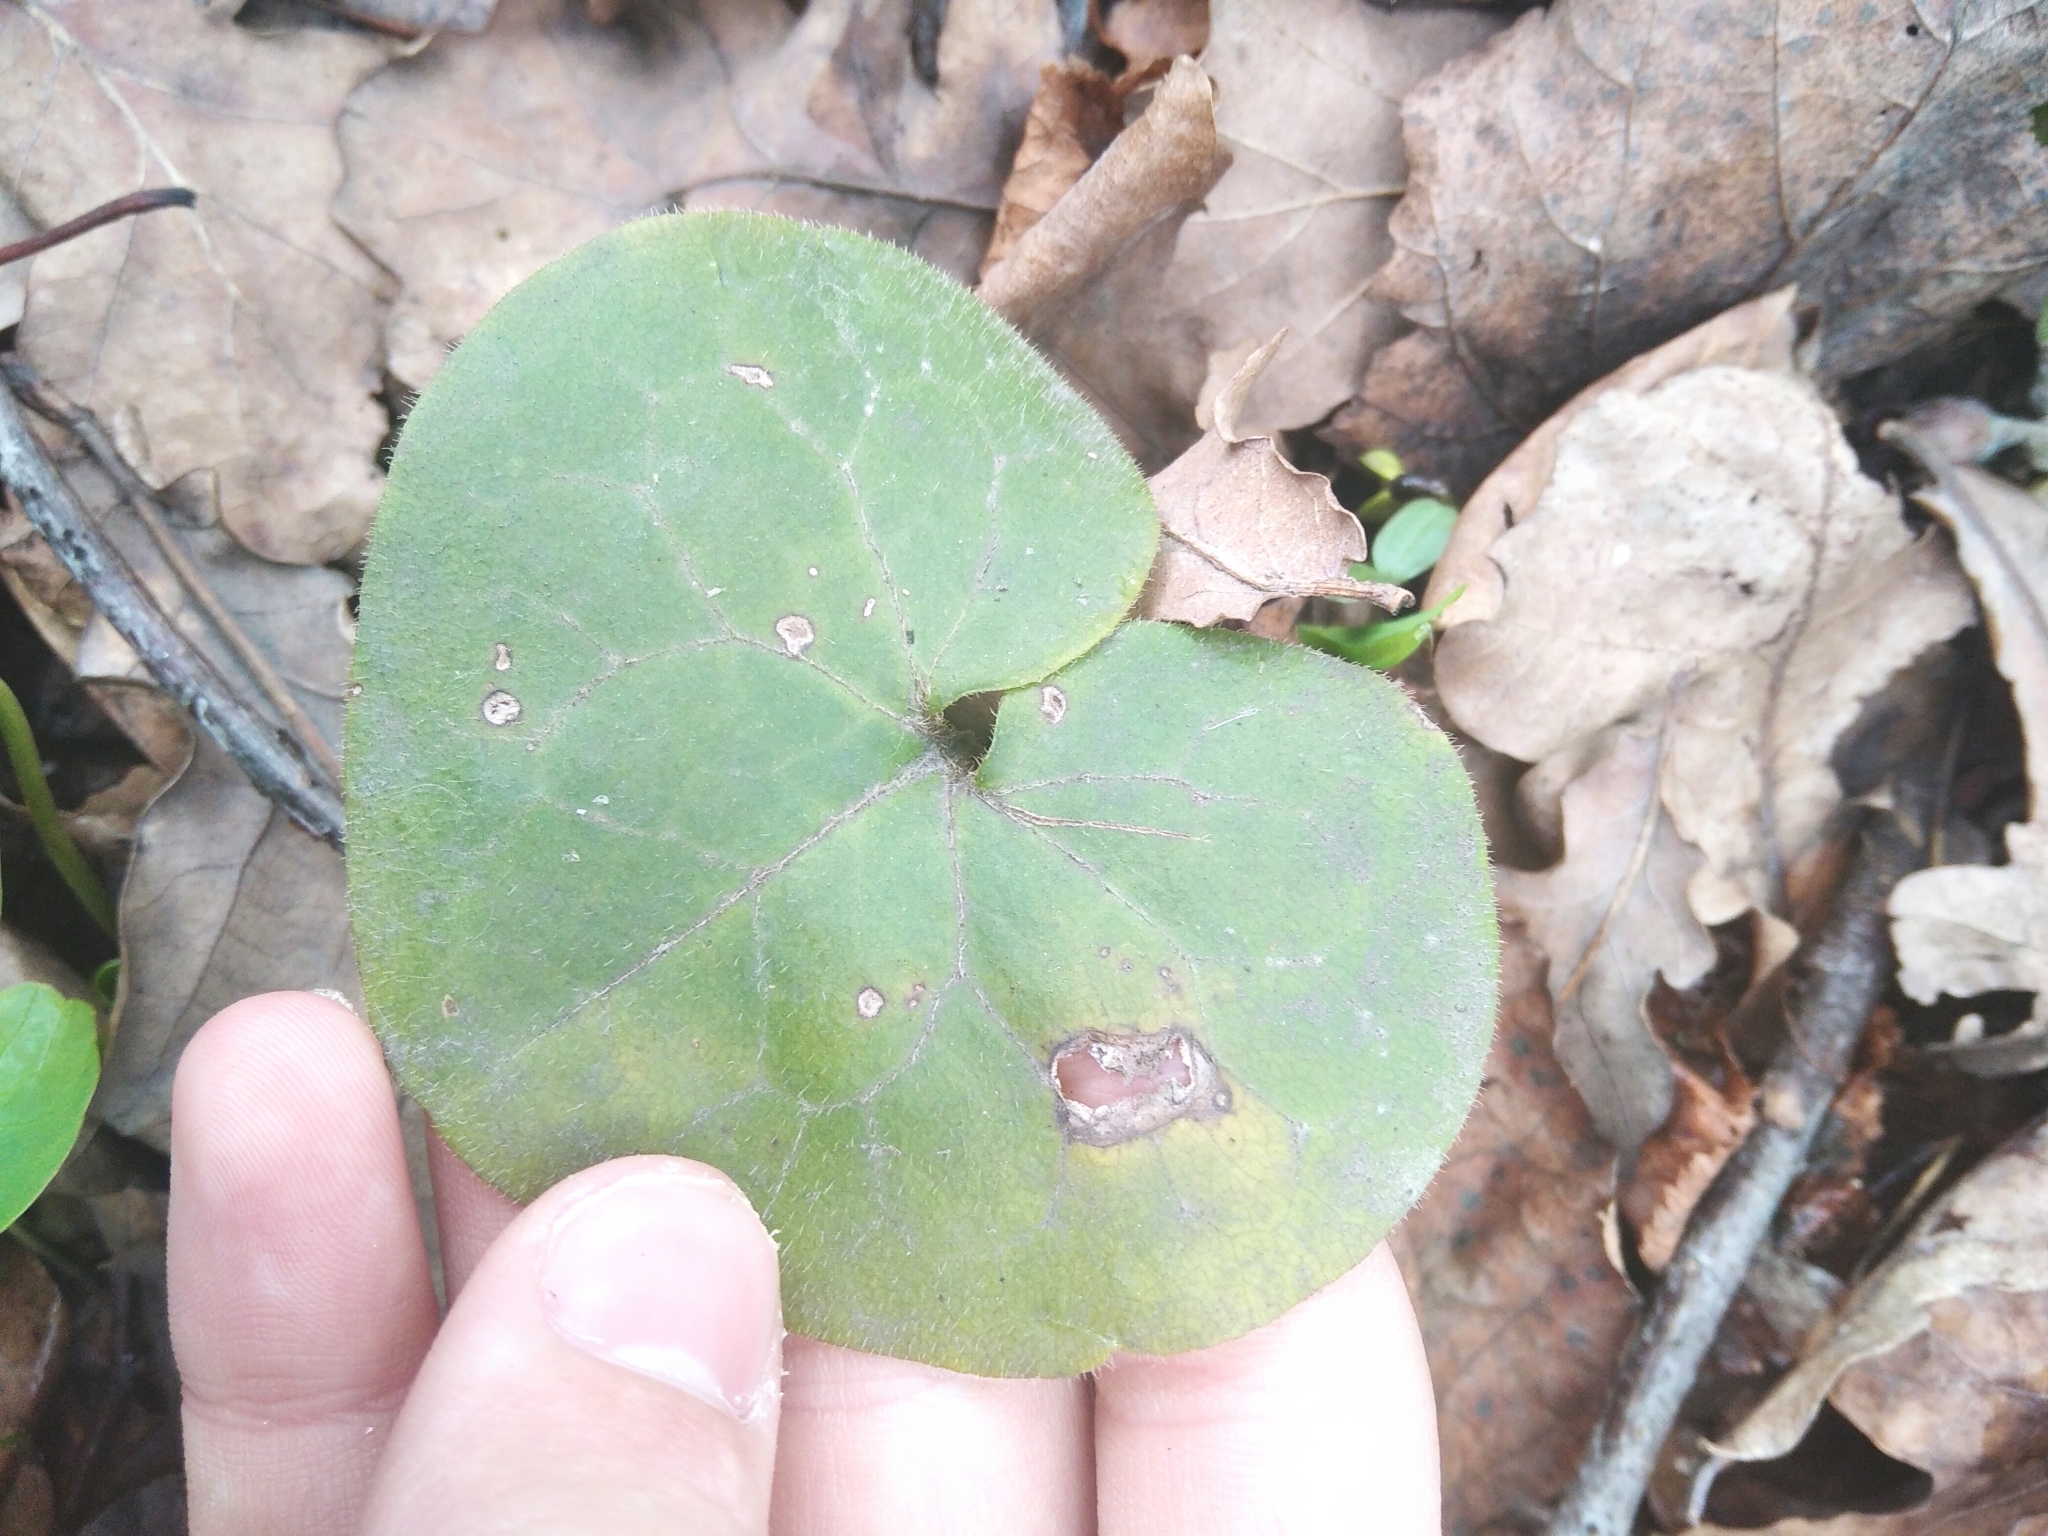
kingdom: Plantae
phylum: Tracheophyta
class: Magnoliopsida
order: Piperales
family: Aristolochiaceae
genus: Asarum
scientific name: Asarum europaeum
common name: Asarabacca
